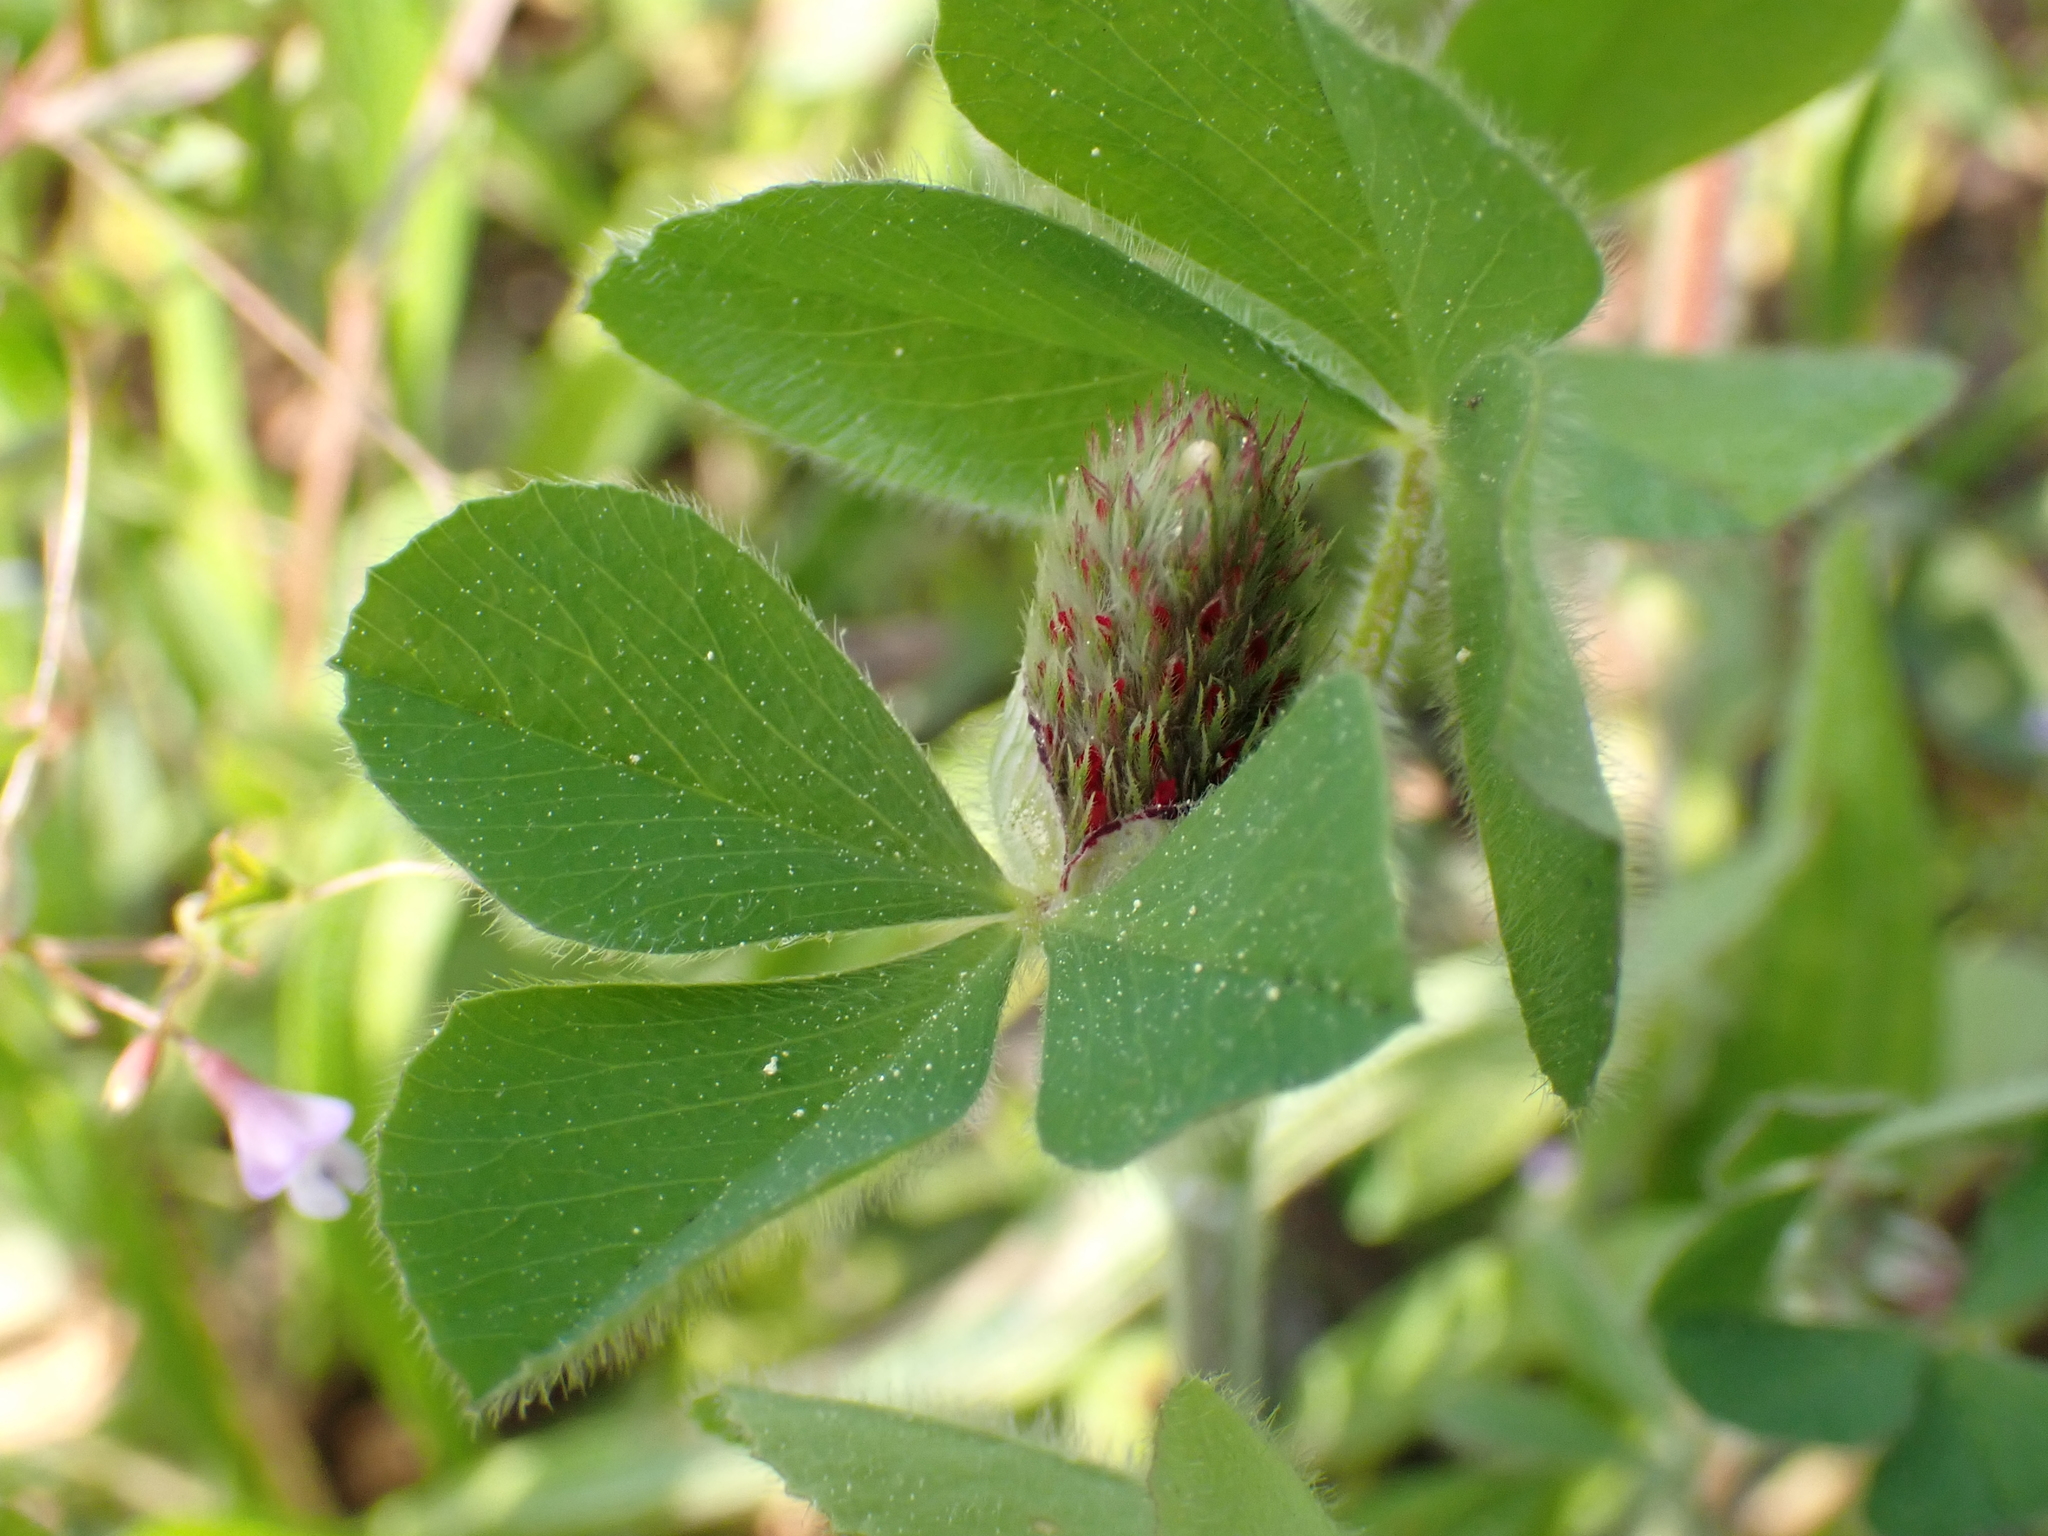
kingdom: Plantae
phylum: Tracheophyta
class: Magnoliopsida
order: Fabales
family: Fabaceae
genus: Trifolium
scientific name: Trifolium incarnatum
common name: Crimson clover
